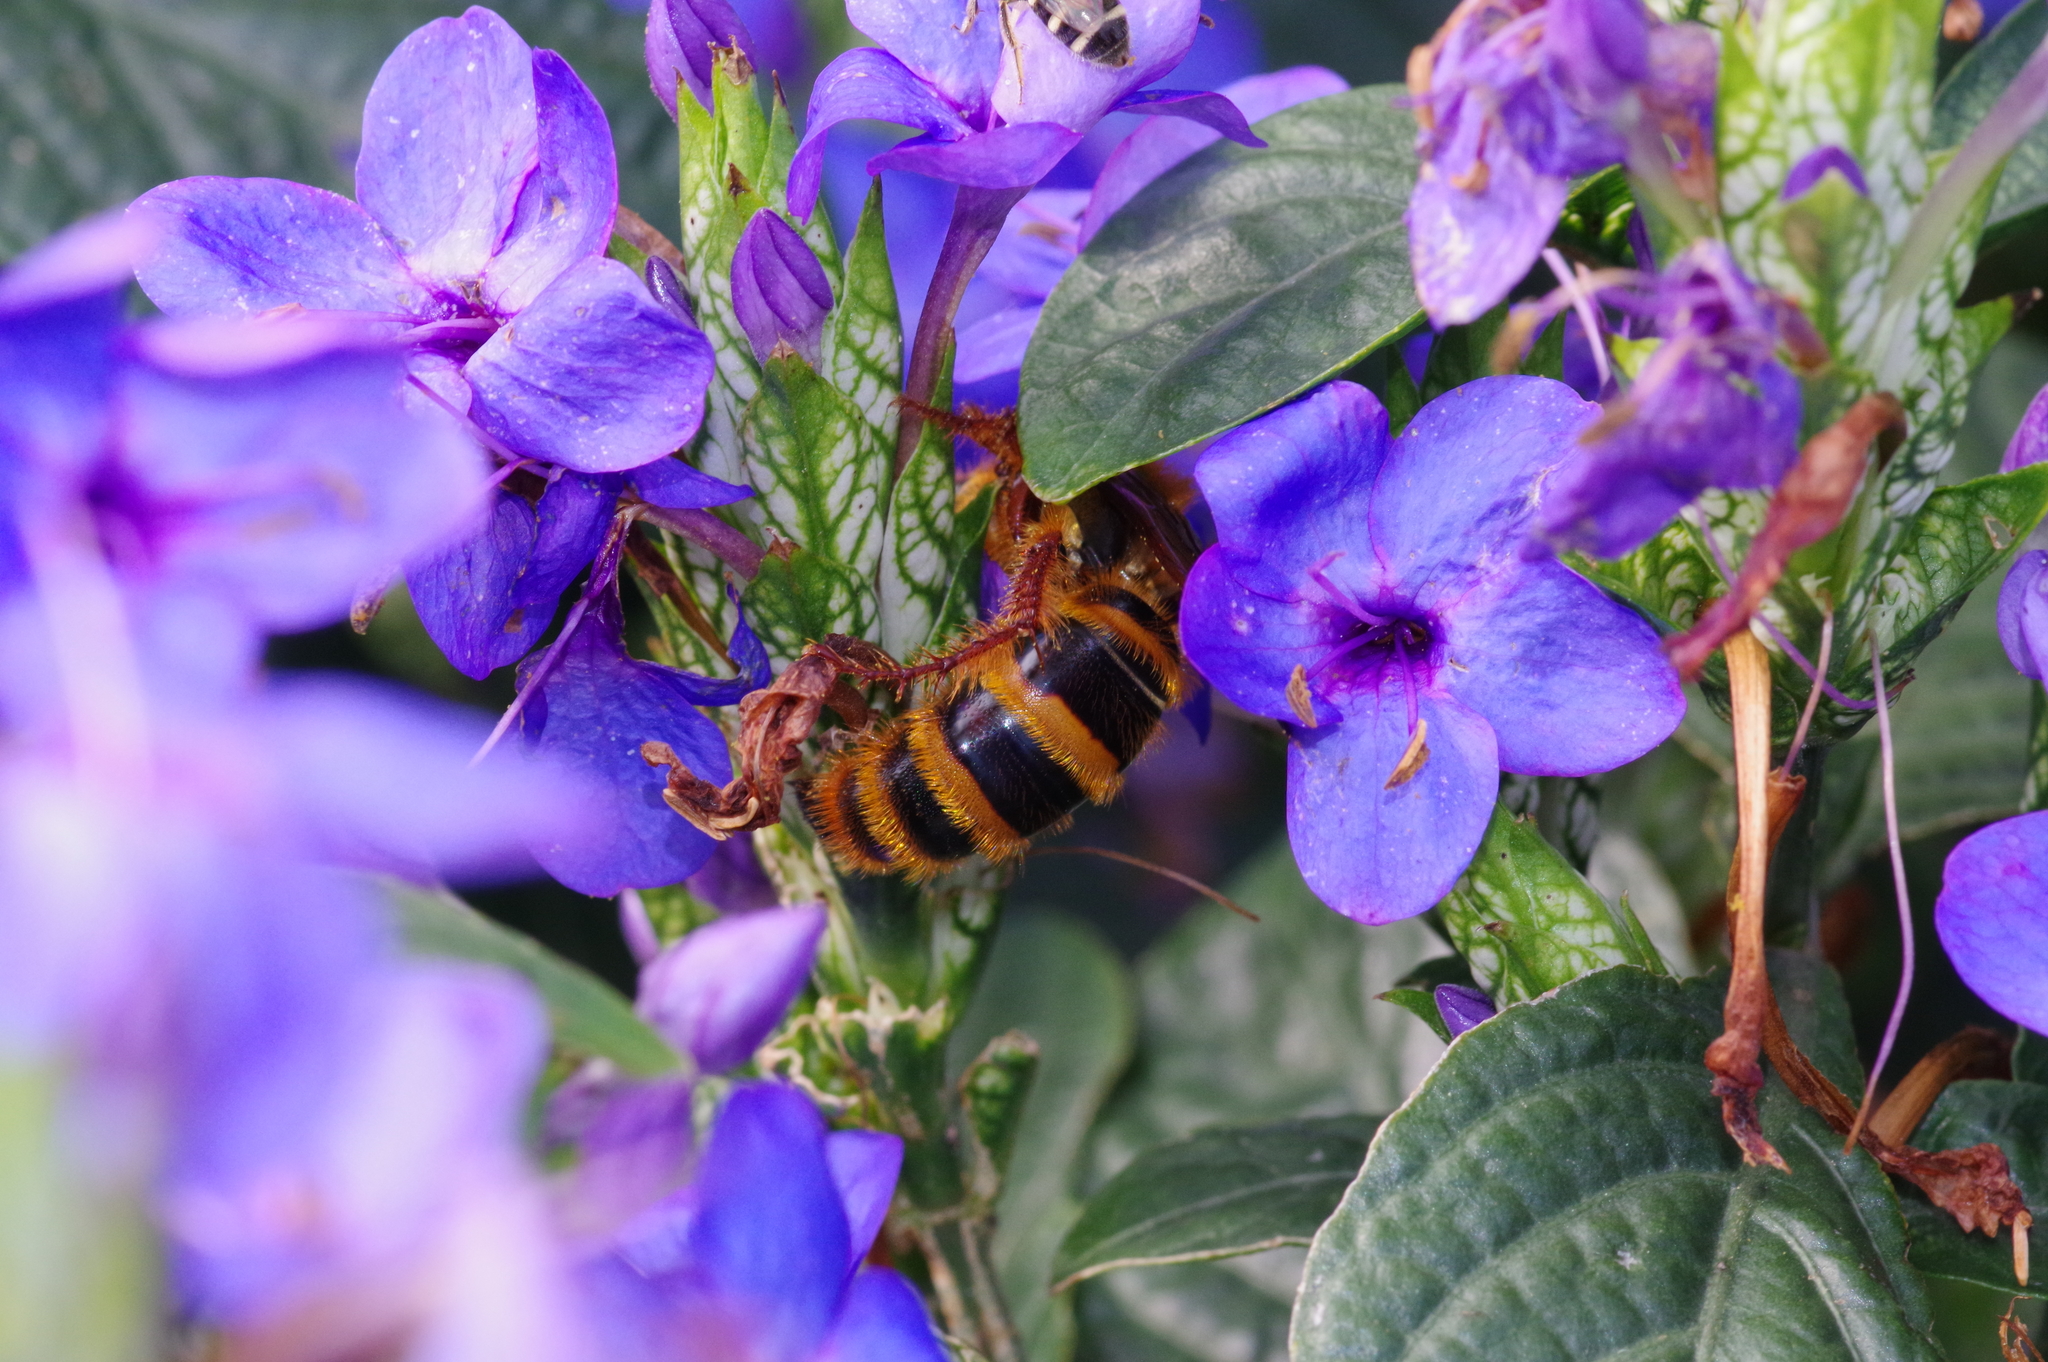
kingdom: Animalia
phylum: Arthropoda
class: Insecta
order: Hymenoptera
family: Scoliidae
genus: Megacampsomeris
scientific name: Megacampsomeris
